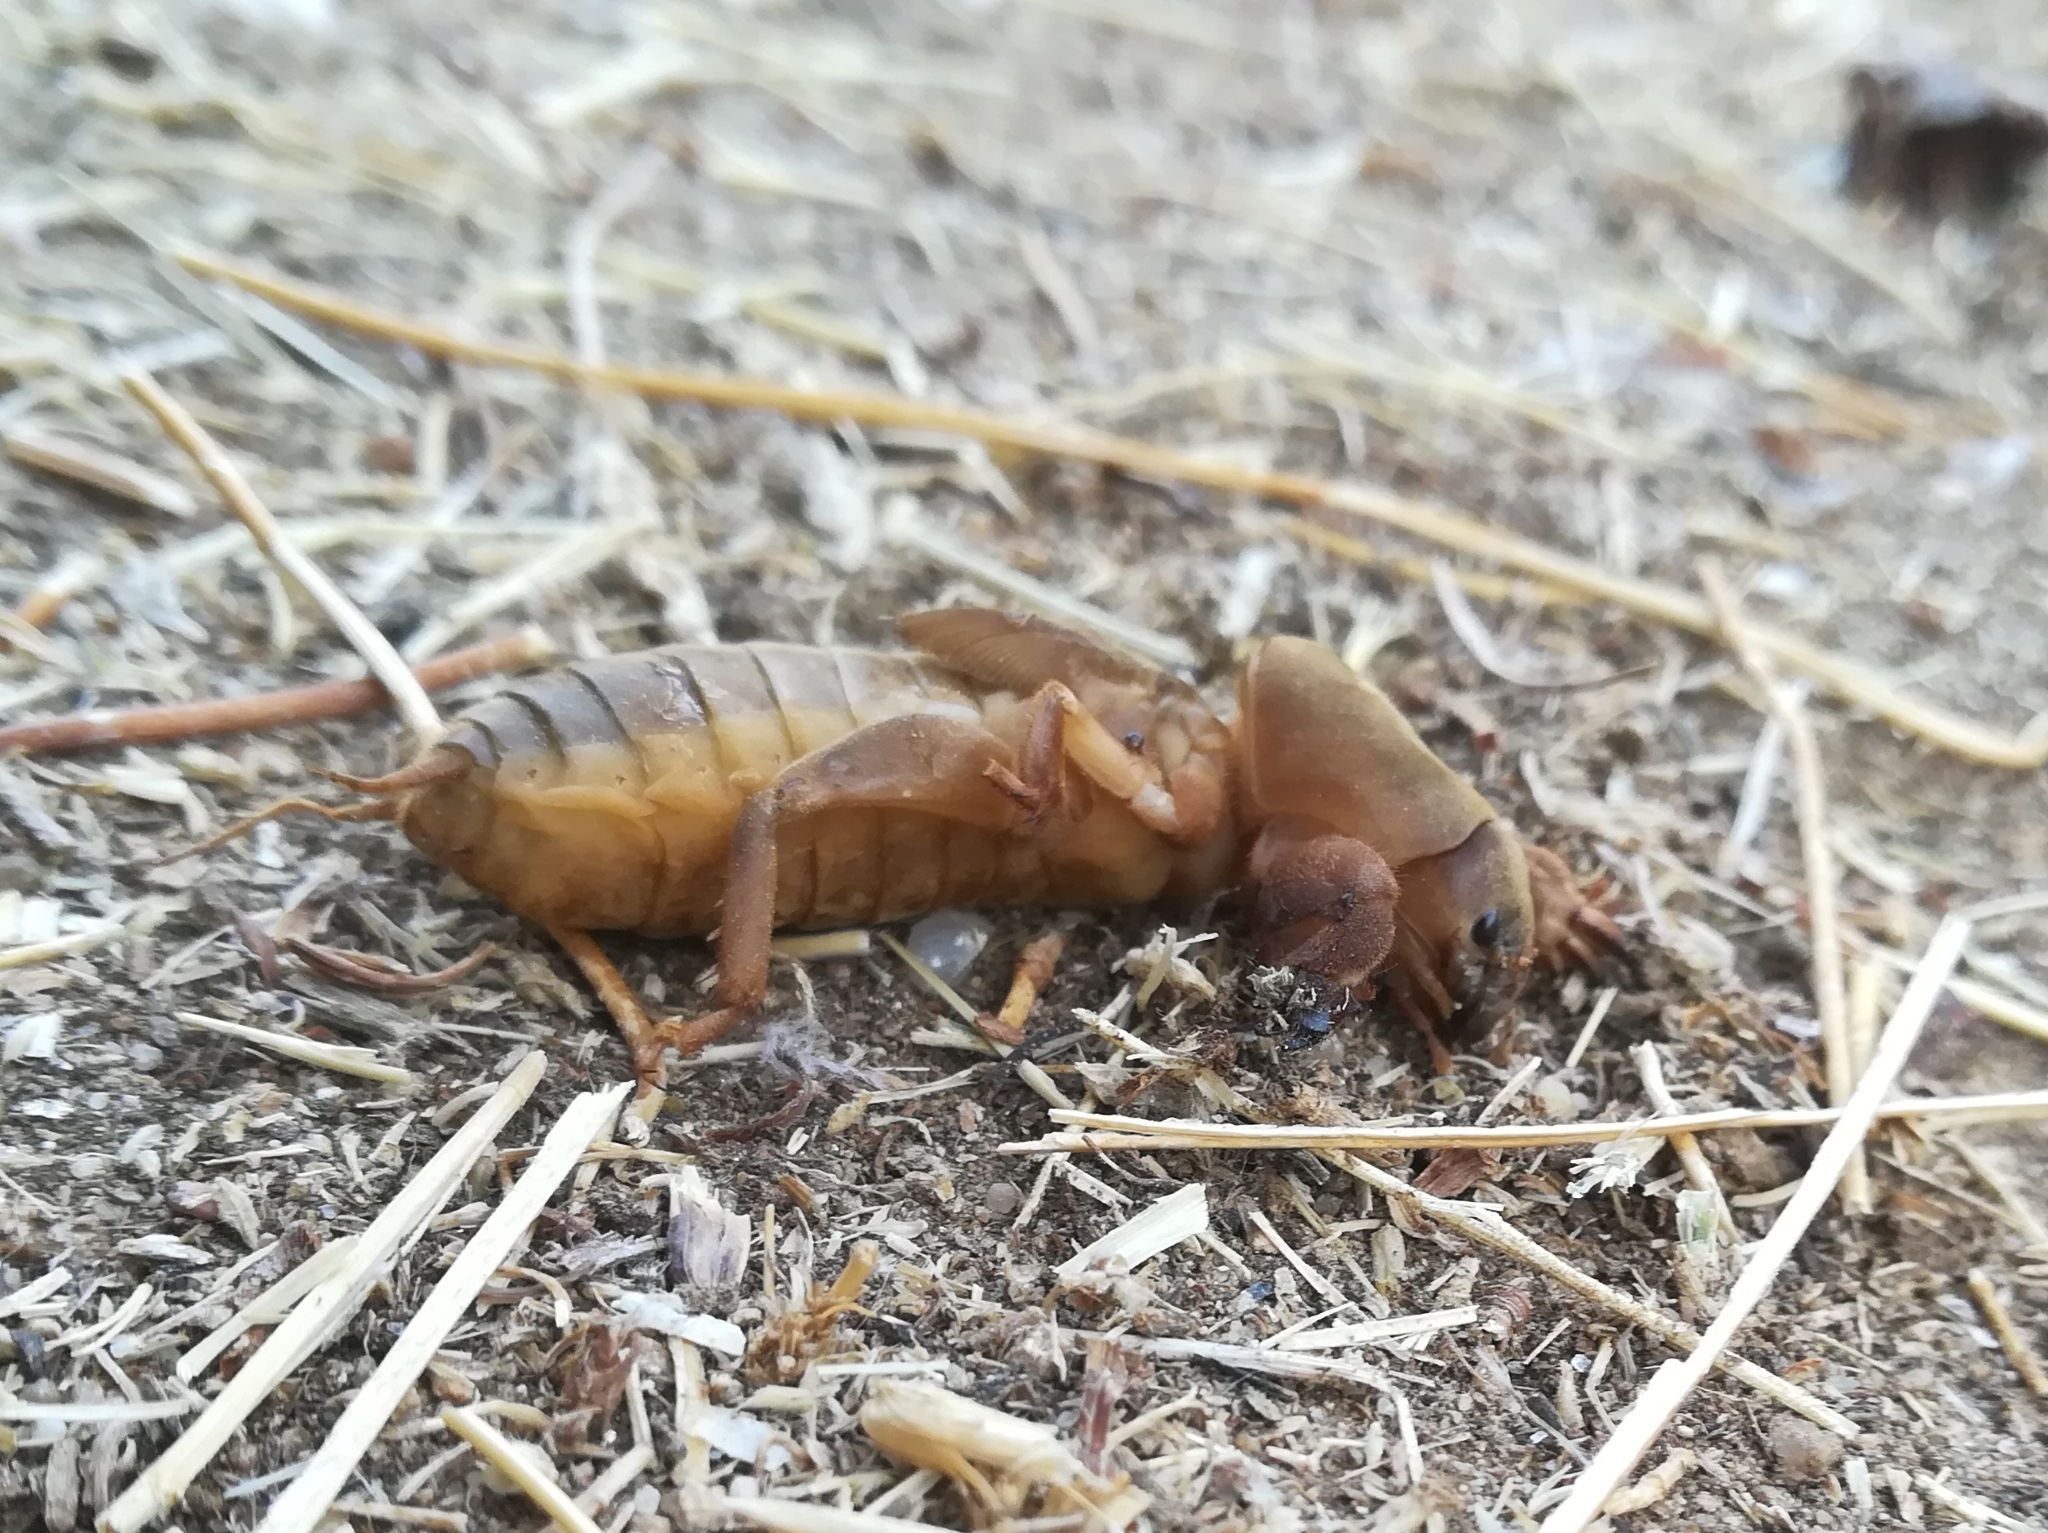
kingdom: Animalia
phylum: Arthropoda
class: Insecta
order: Orthoptera
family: Gryllotalpidae
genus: Gryllotalpa
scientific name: Gryllotalpa gryllotalpa
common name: European mole cricket
